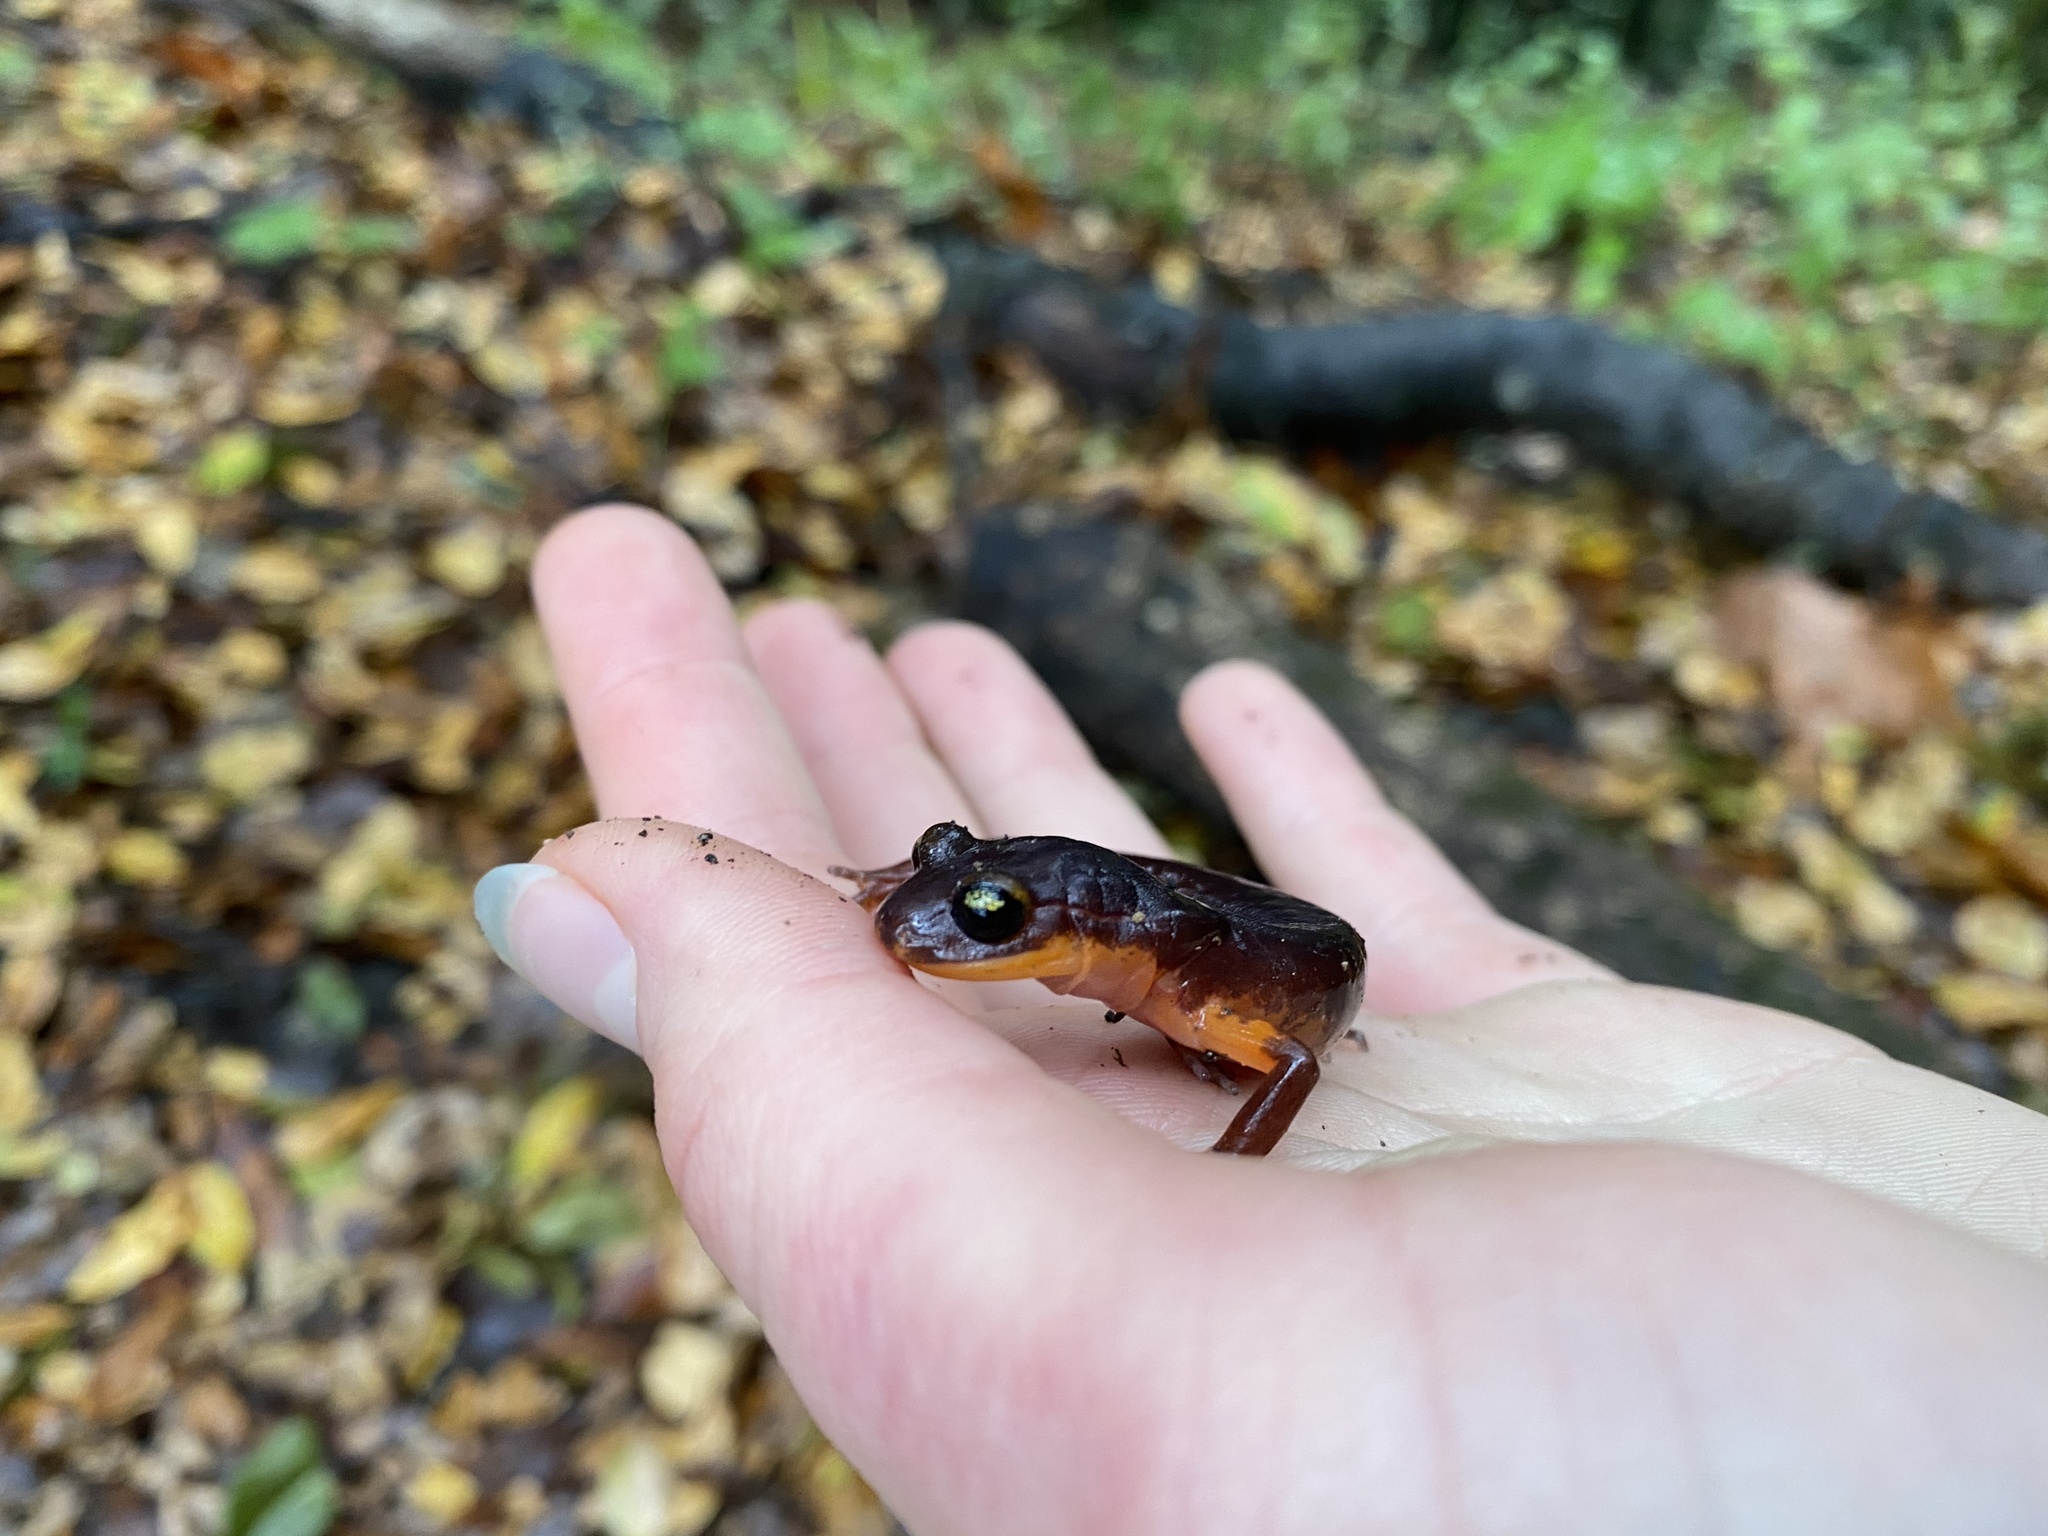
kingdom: Animalia
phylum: Chordata
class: Amphibia
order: Caudata
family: Plethodontidae
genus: Ensatina
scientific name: Ensatina eschscholtzii
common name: Ensatina
